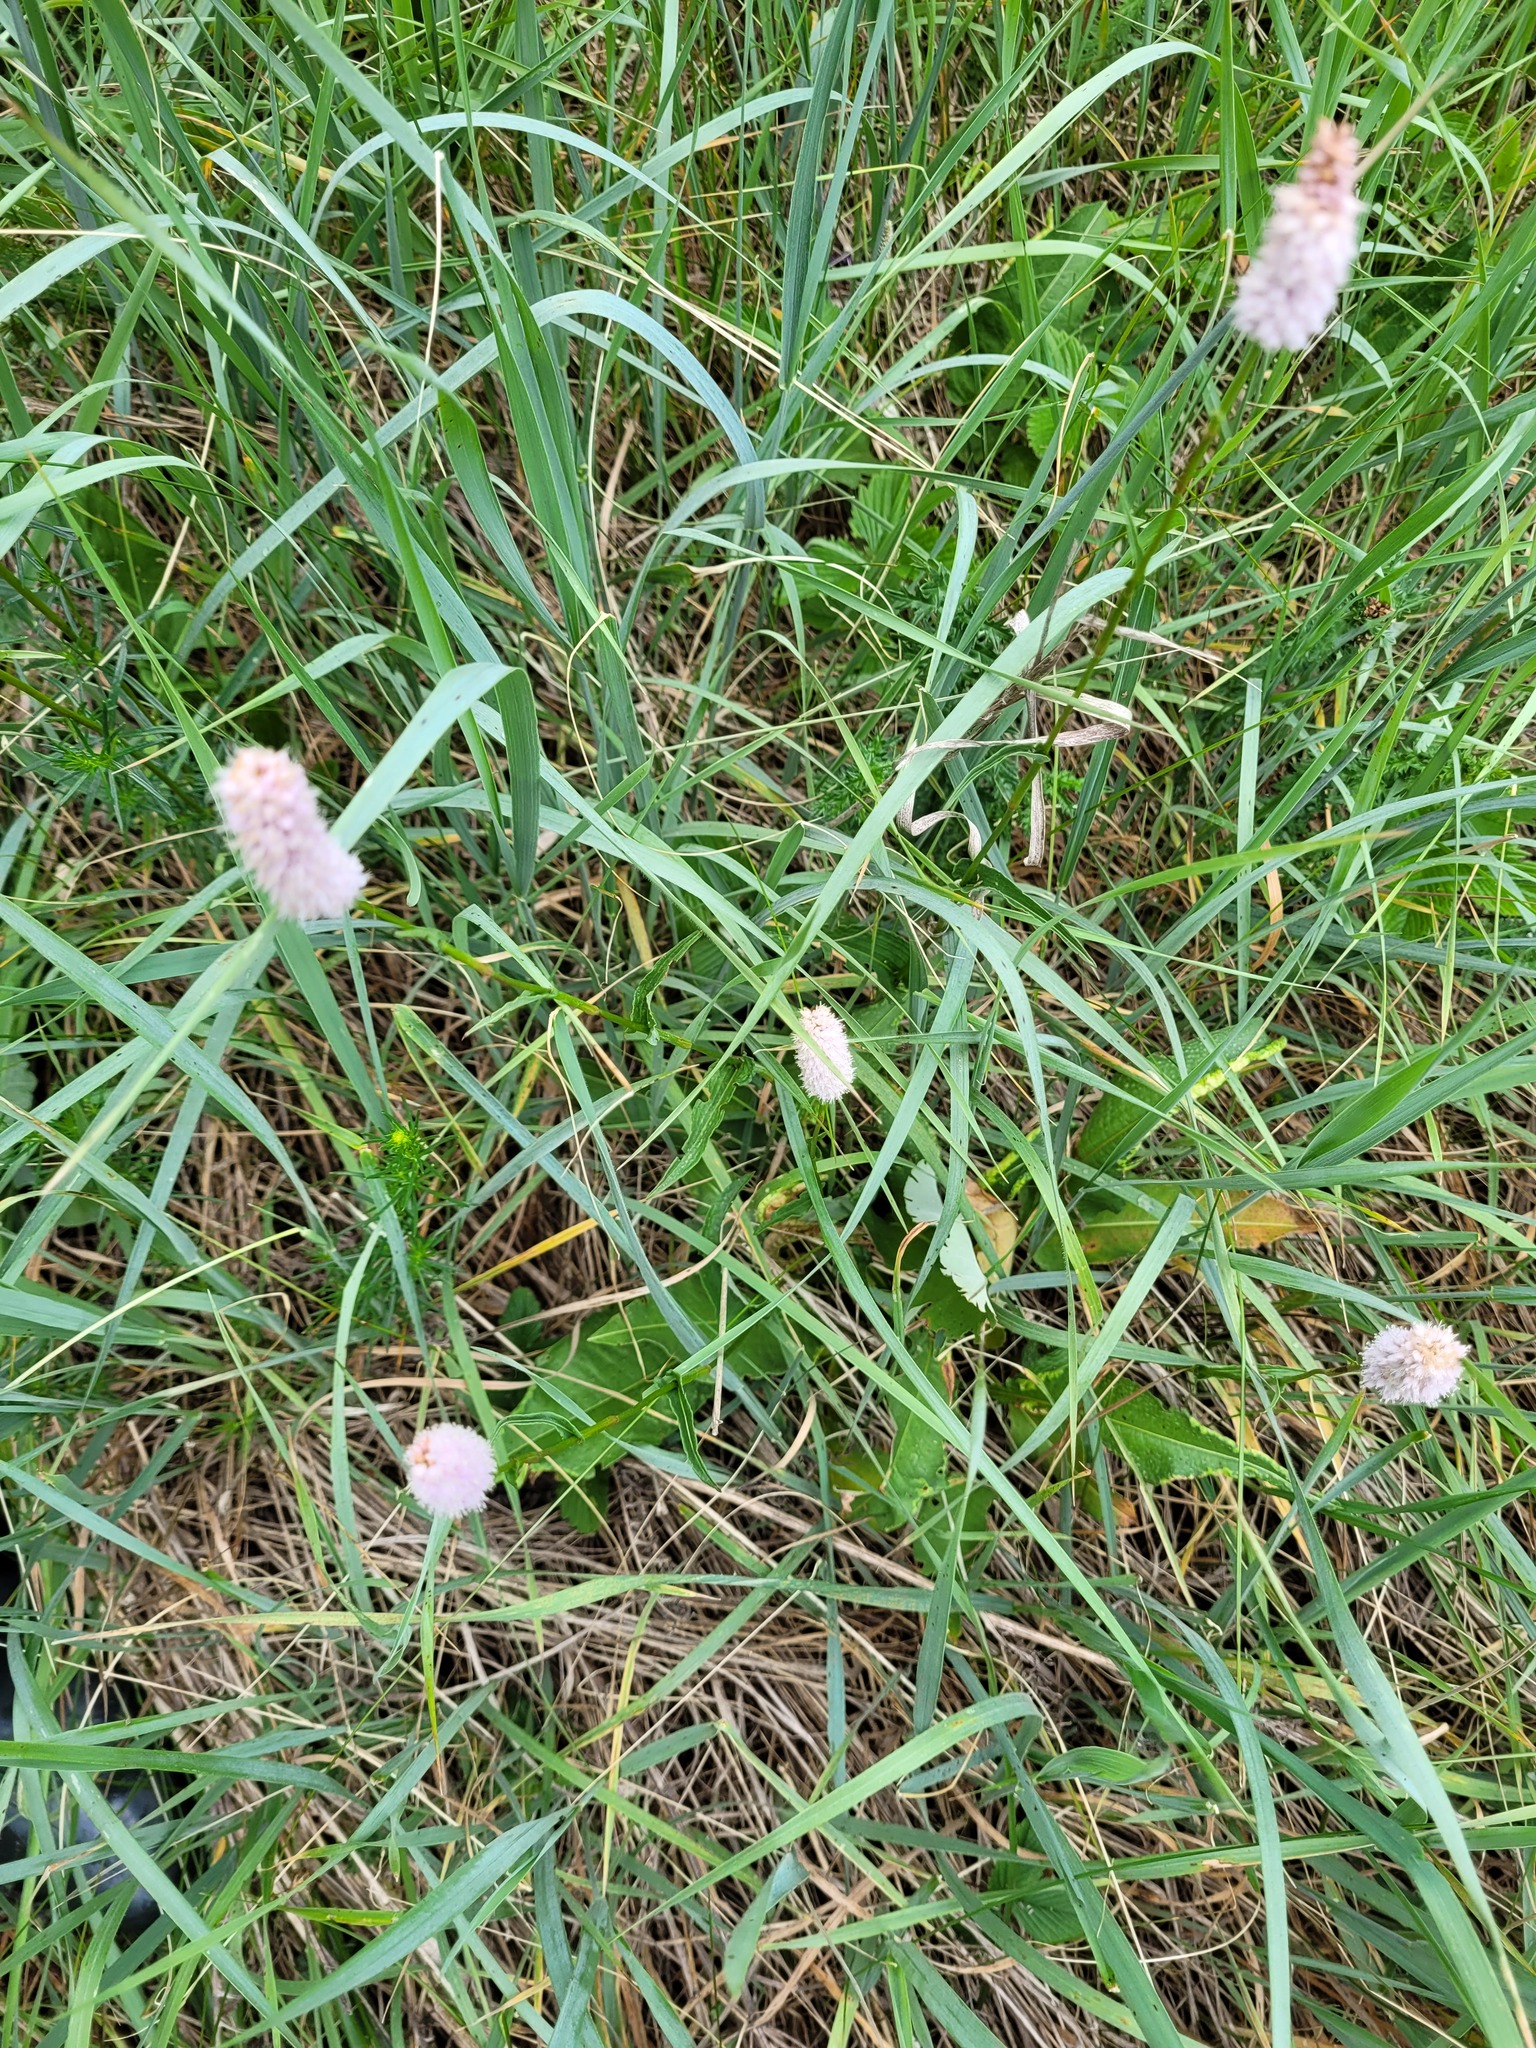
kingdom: Plantae
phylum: Tracheophyta
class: Magnoliopsida
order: Caryophyllales
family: Polygonaceae
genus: Bistorta
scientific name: Bistorta officinalis
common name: Common bistort
